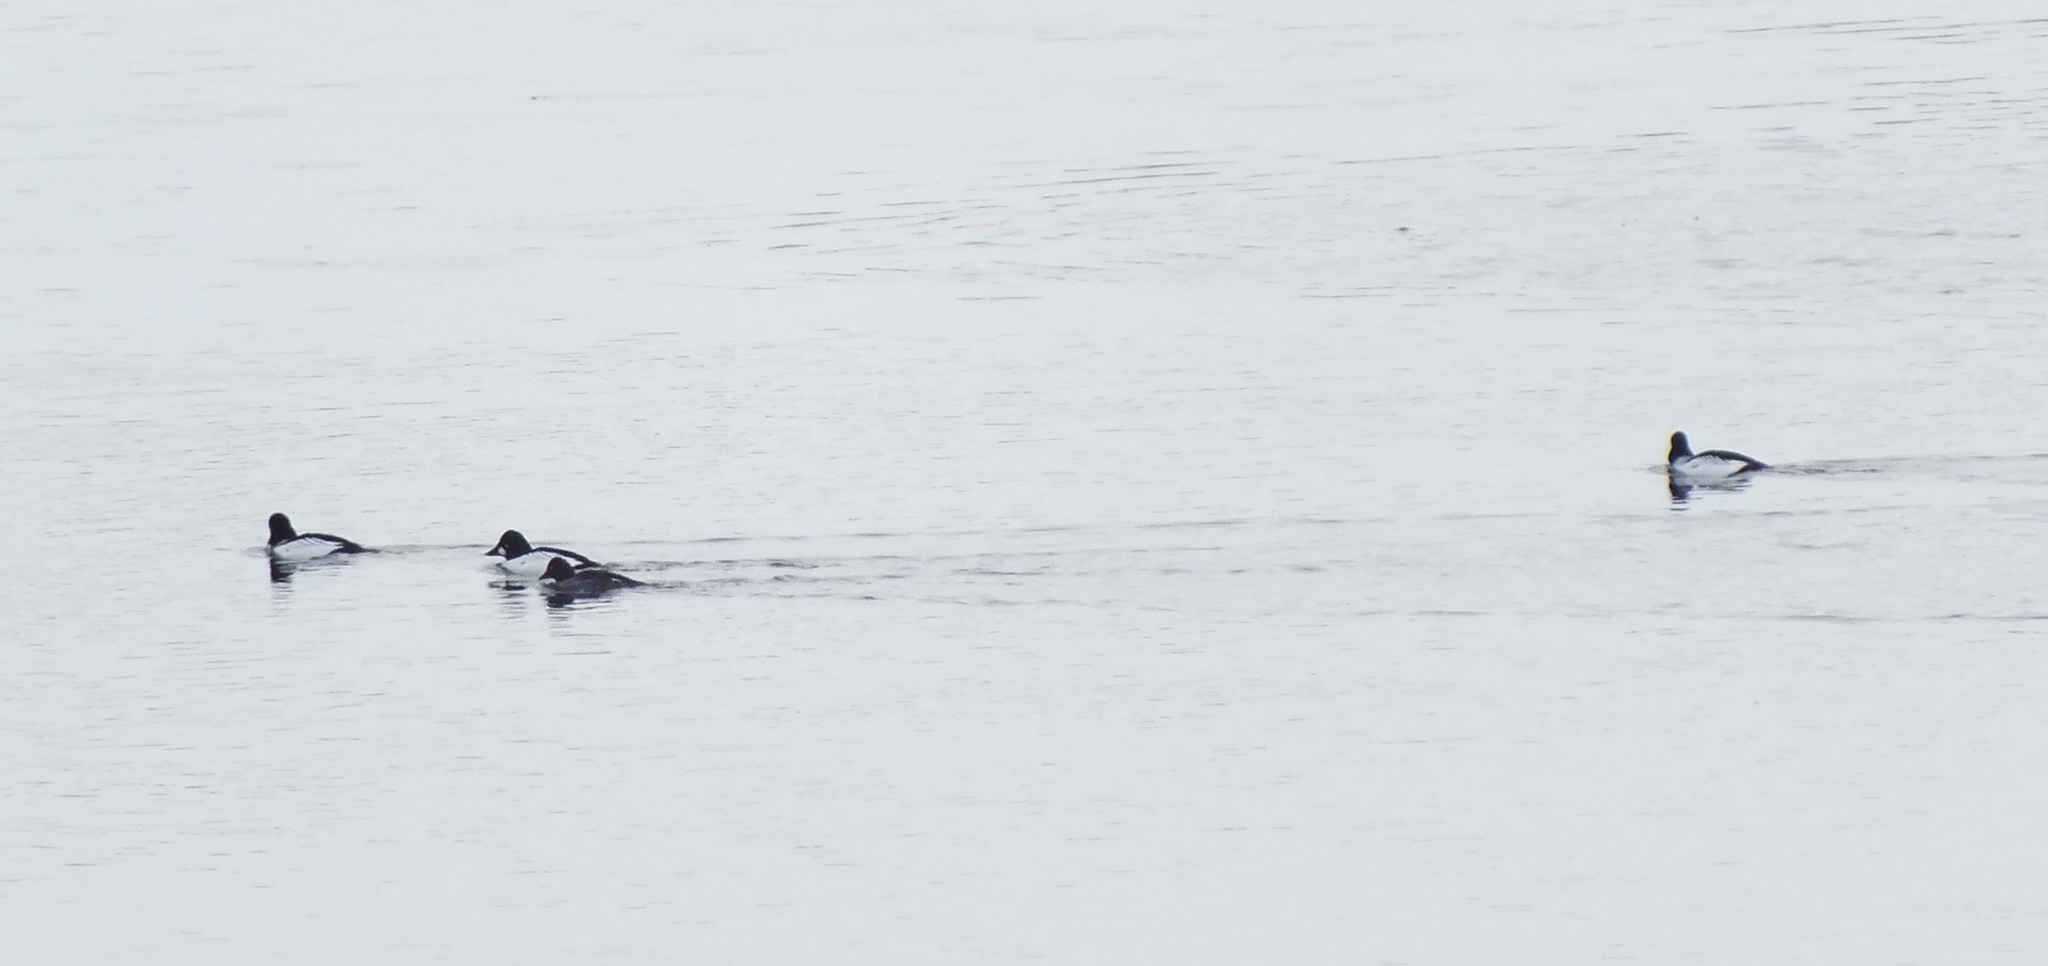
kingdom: Animalia
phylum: Chordata
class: Aves
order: Anseriformes
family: Anatidae
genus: Bucephala
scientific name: Bucephala clangula
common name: Common goldeneye
